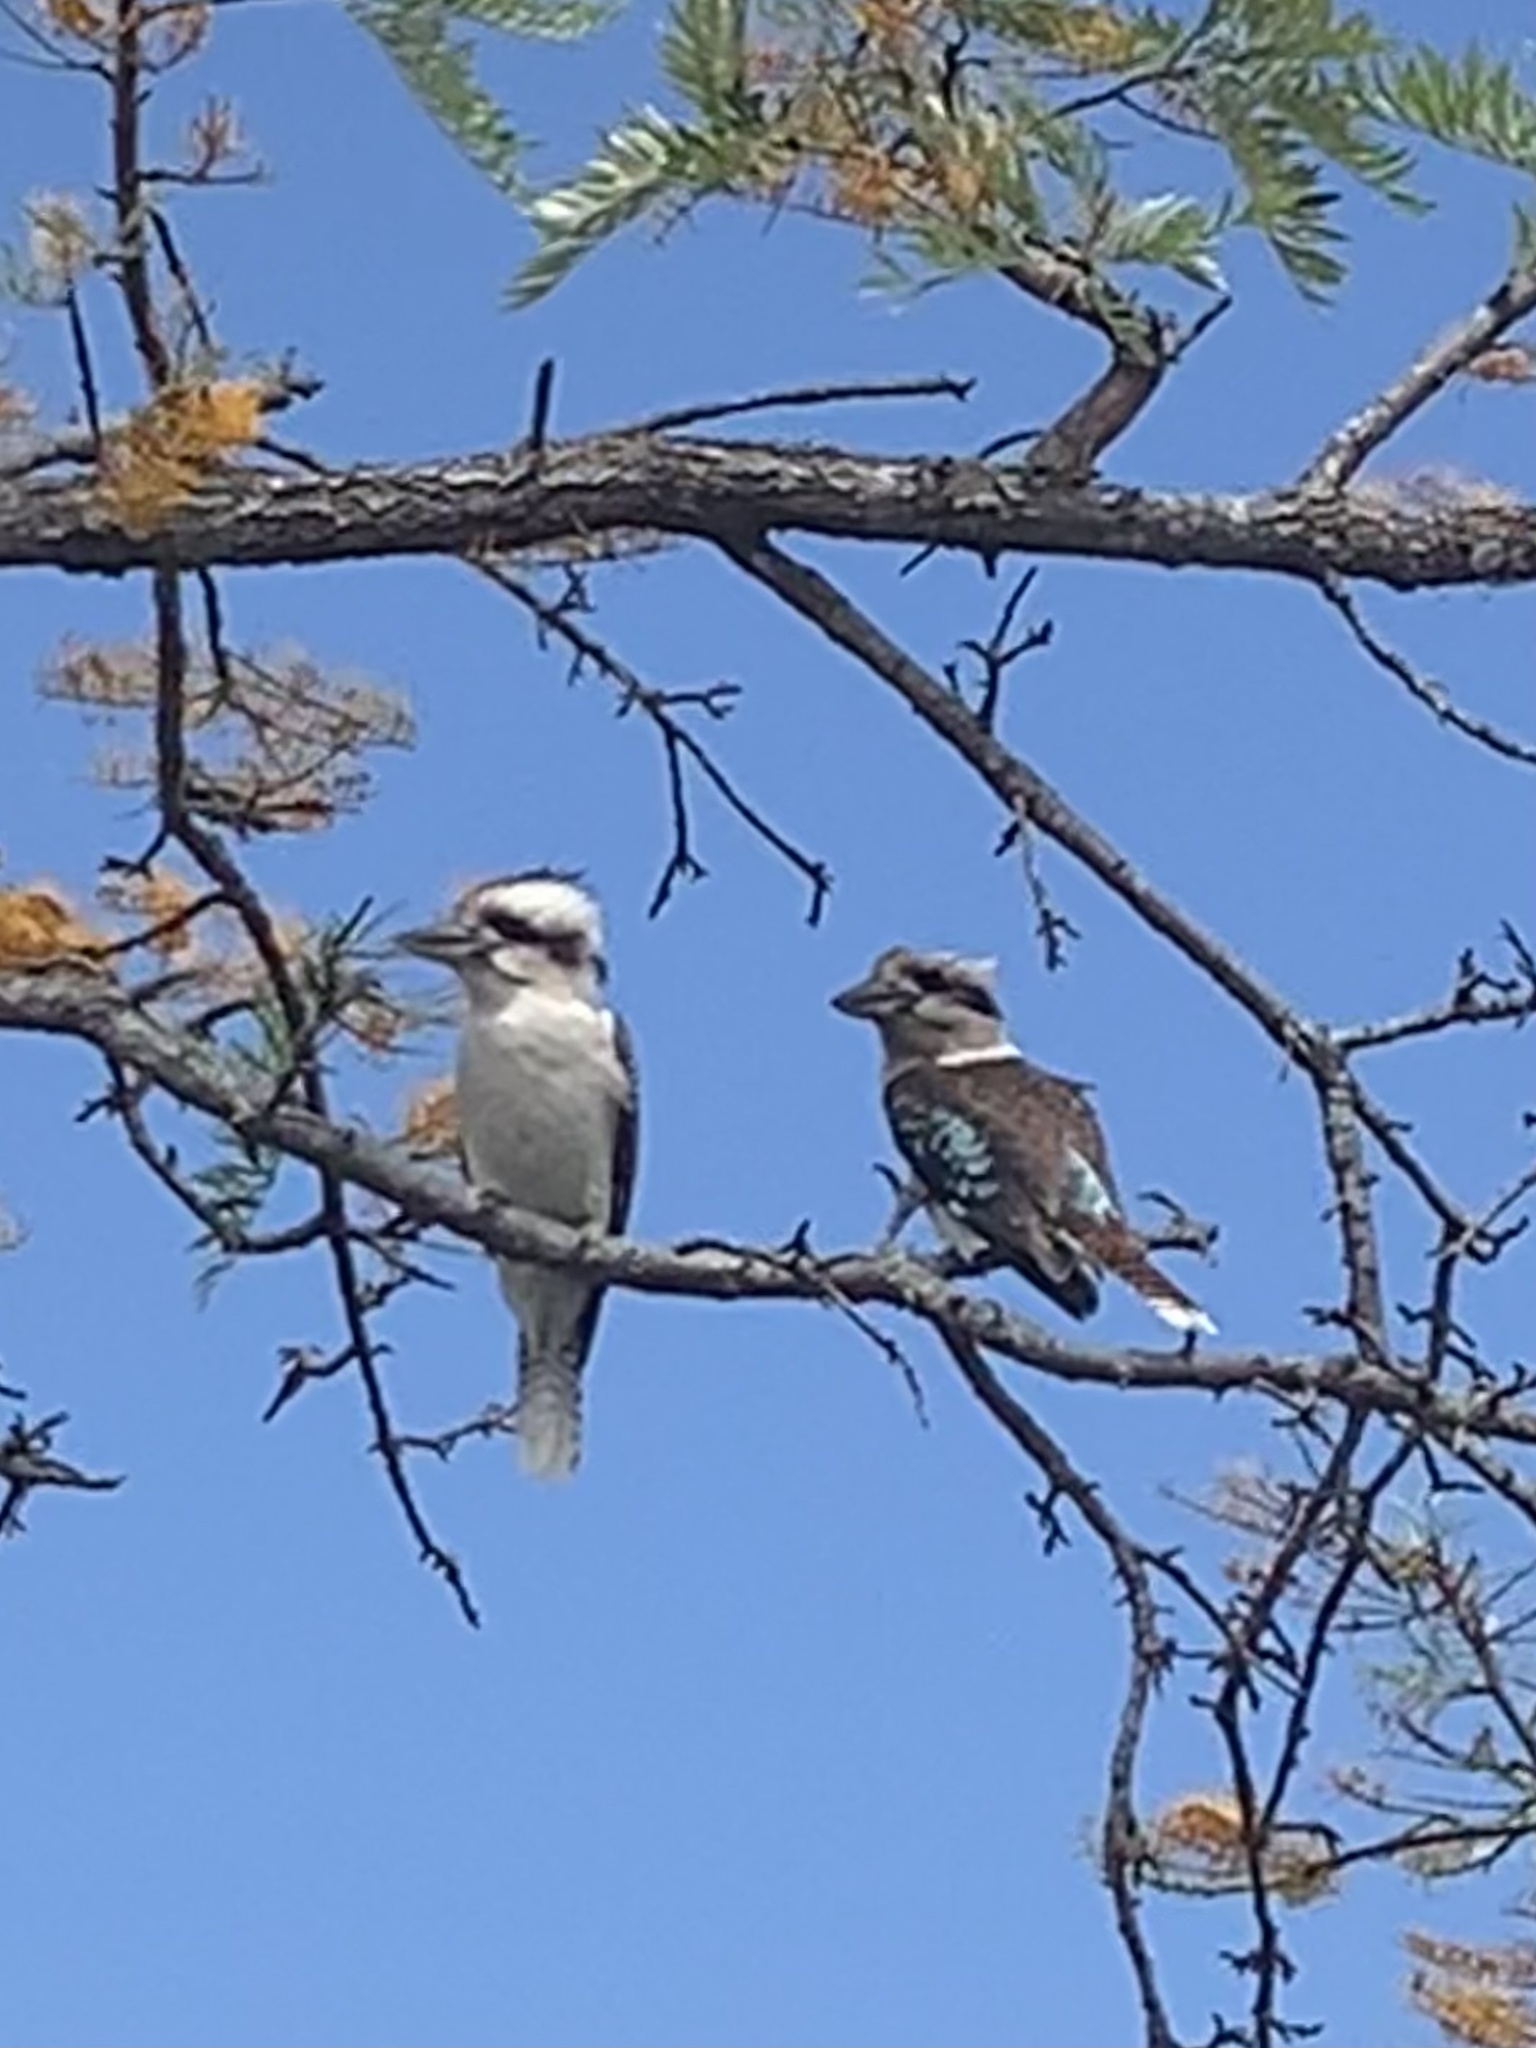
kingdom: Animalia
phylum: Chordata
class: Aves
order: Coraciiformes
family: Alcedinidae
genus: Dacelo
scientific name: Dacelo novaeguineae
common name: Laughing kookaburra
